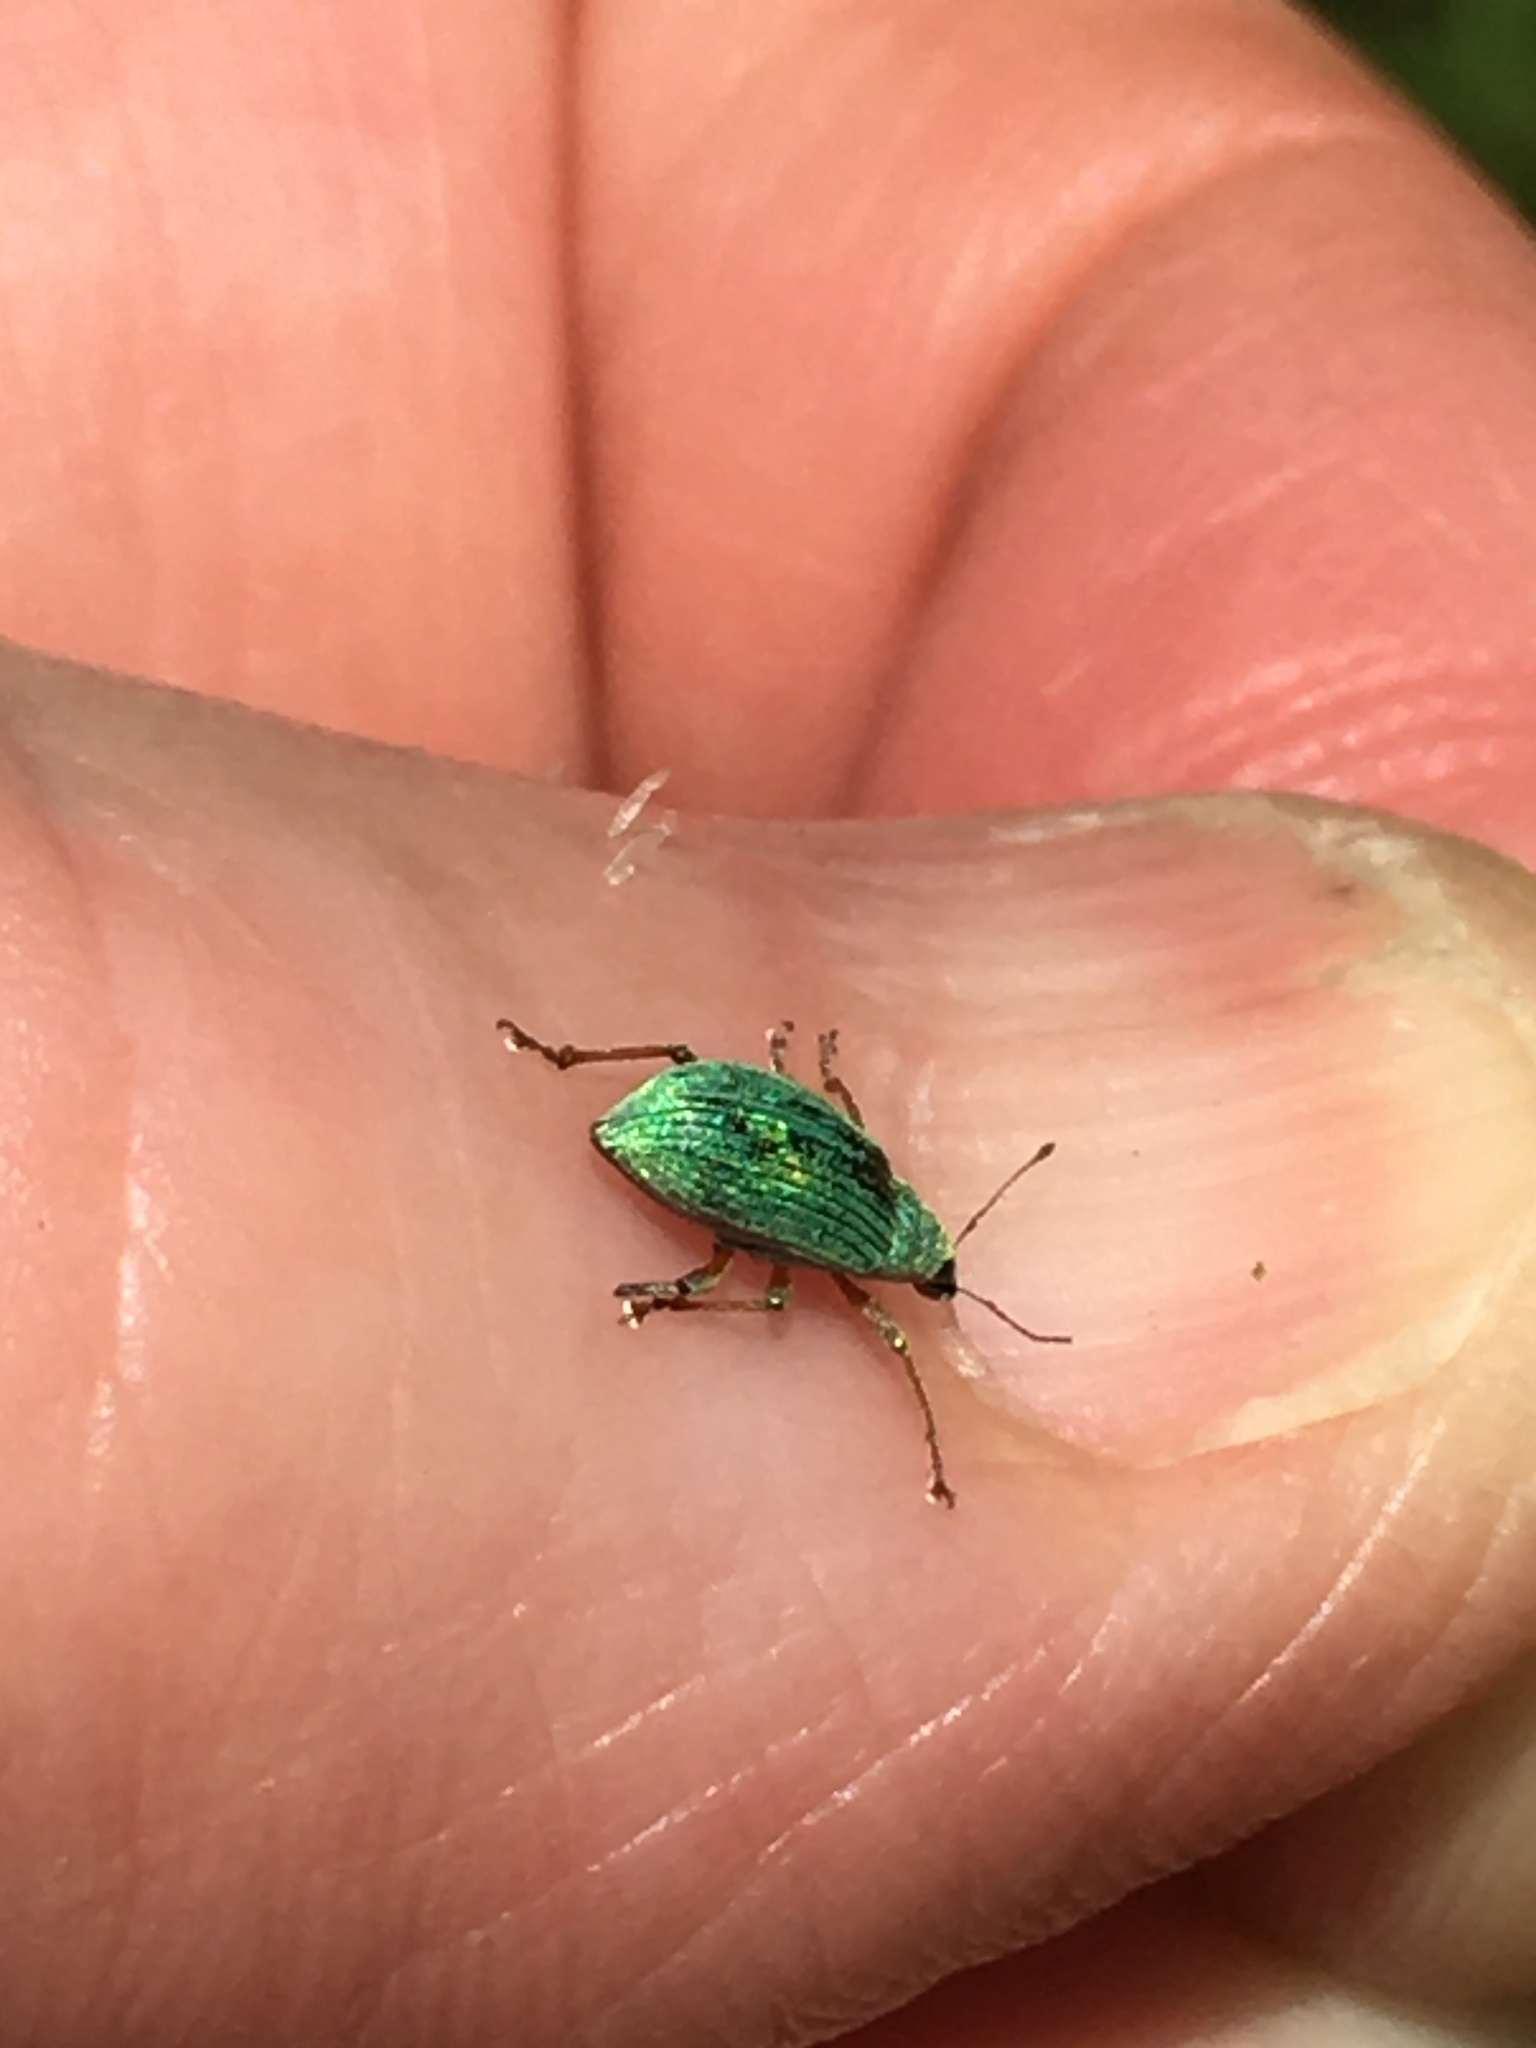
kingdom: Animalia
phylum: Arthropoda
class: Insecta
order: Coleoptera
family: Curculionidae
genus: Polydrusus
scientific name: Polydrusus formosus
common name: Weevil
